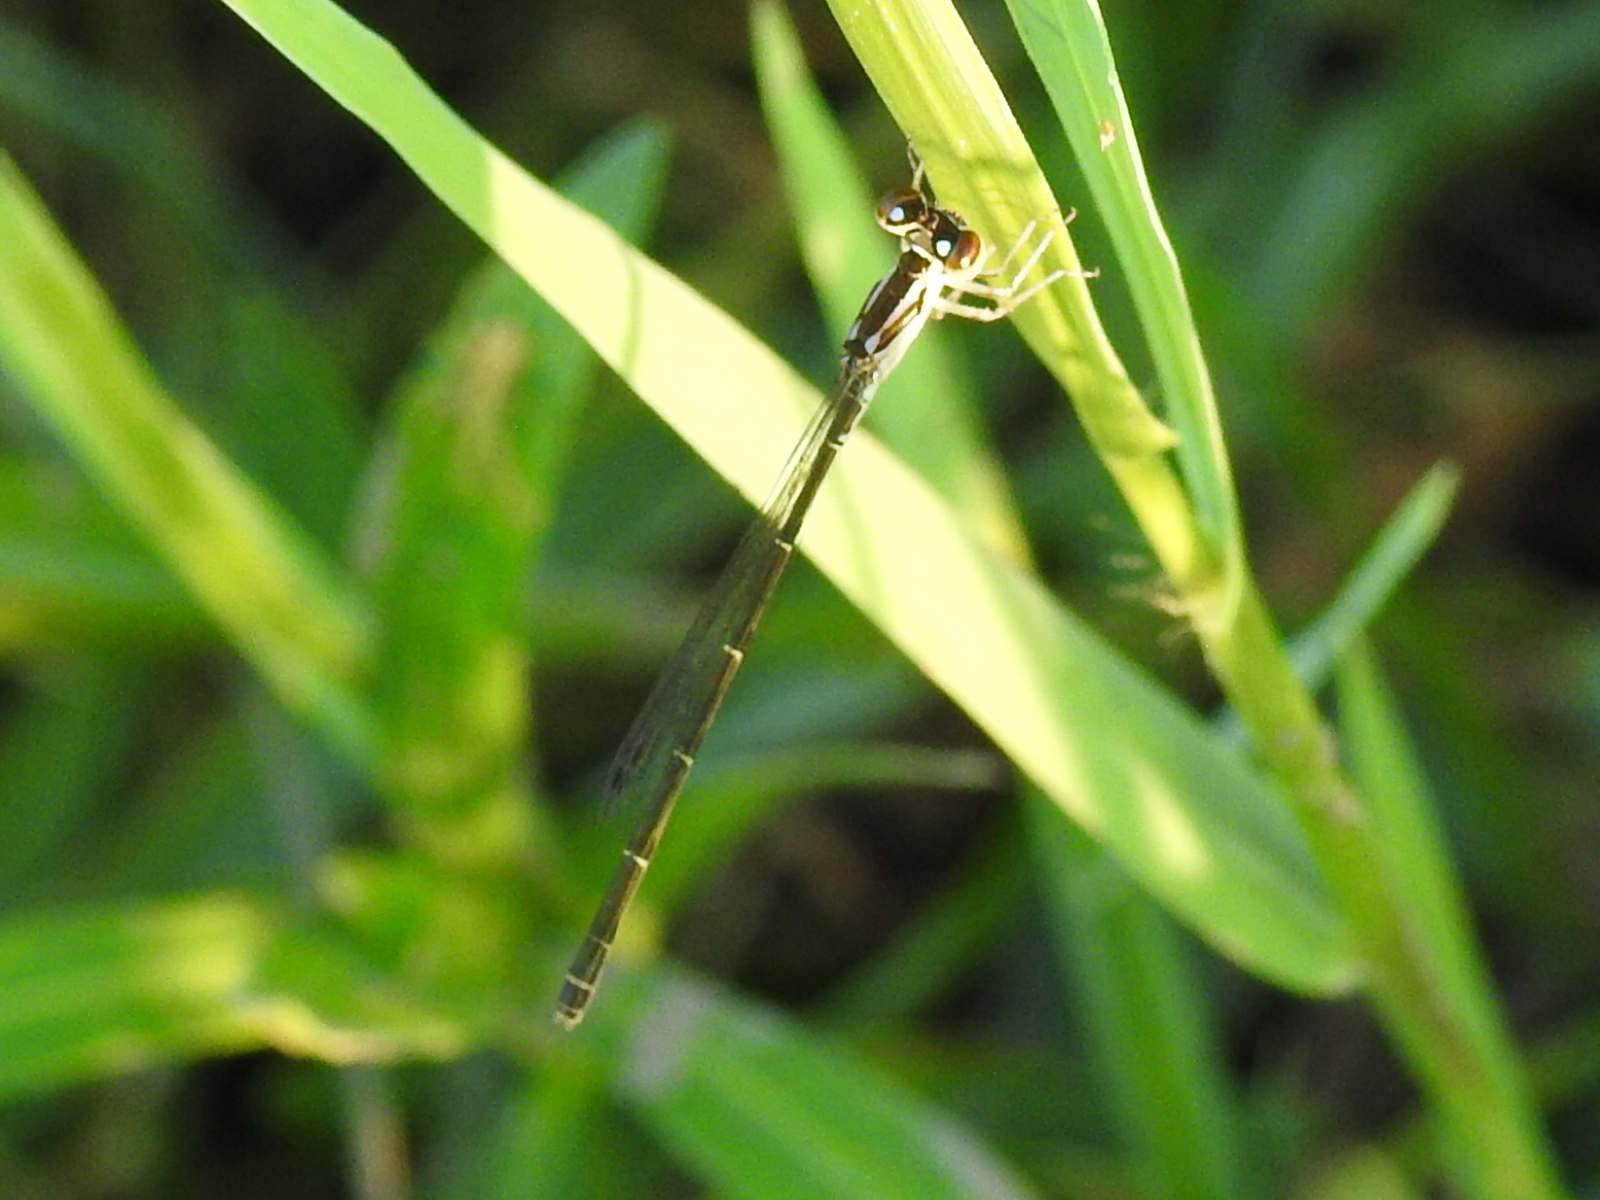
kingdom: Animalia
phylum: Arthropoda
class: Insecta
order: Odonata
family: Coenagrionidae
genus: Ischnura
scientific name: Ischnura posita
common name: Fragile forktail
